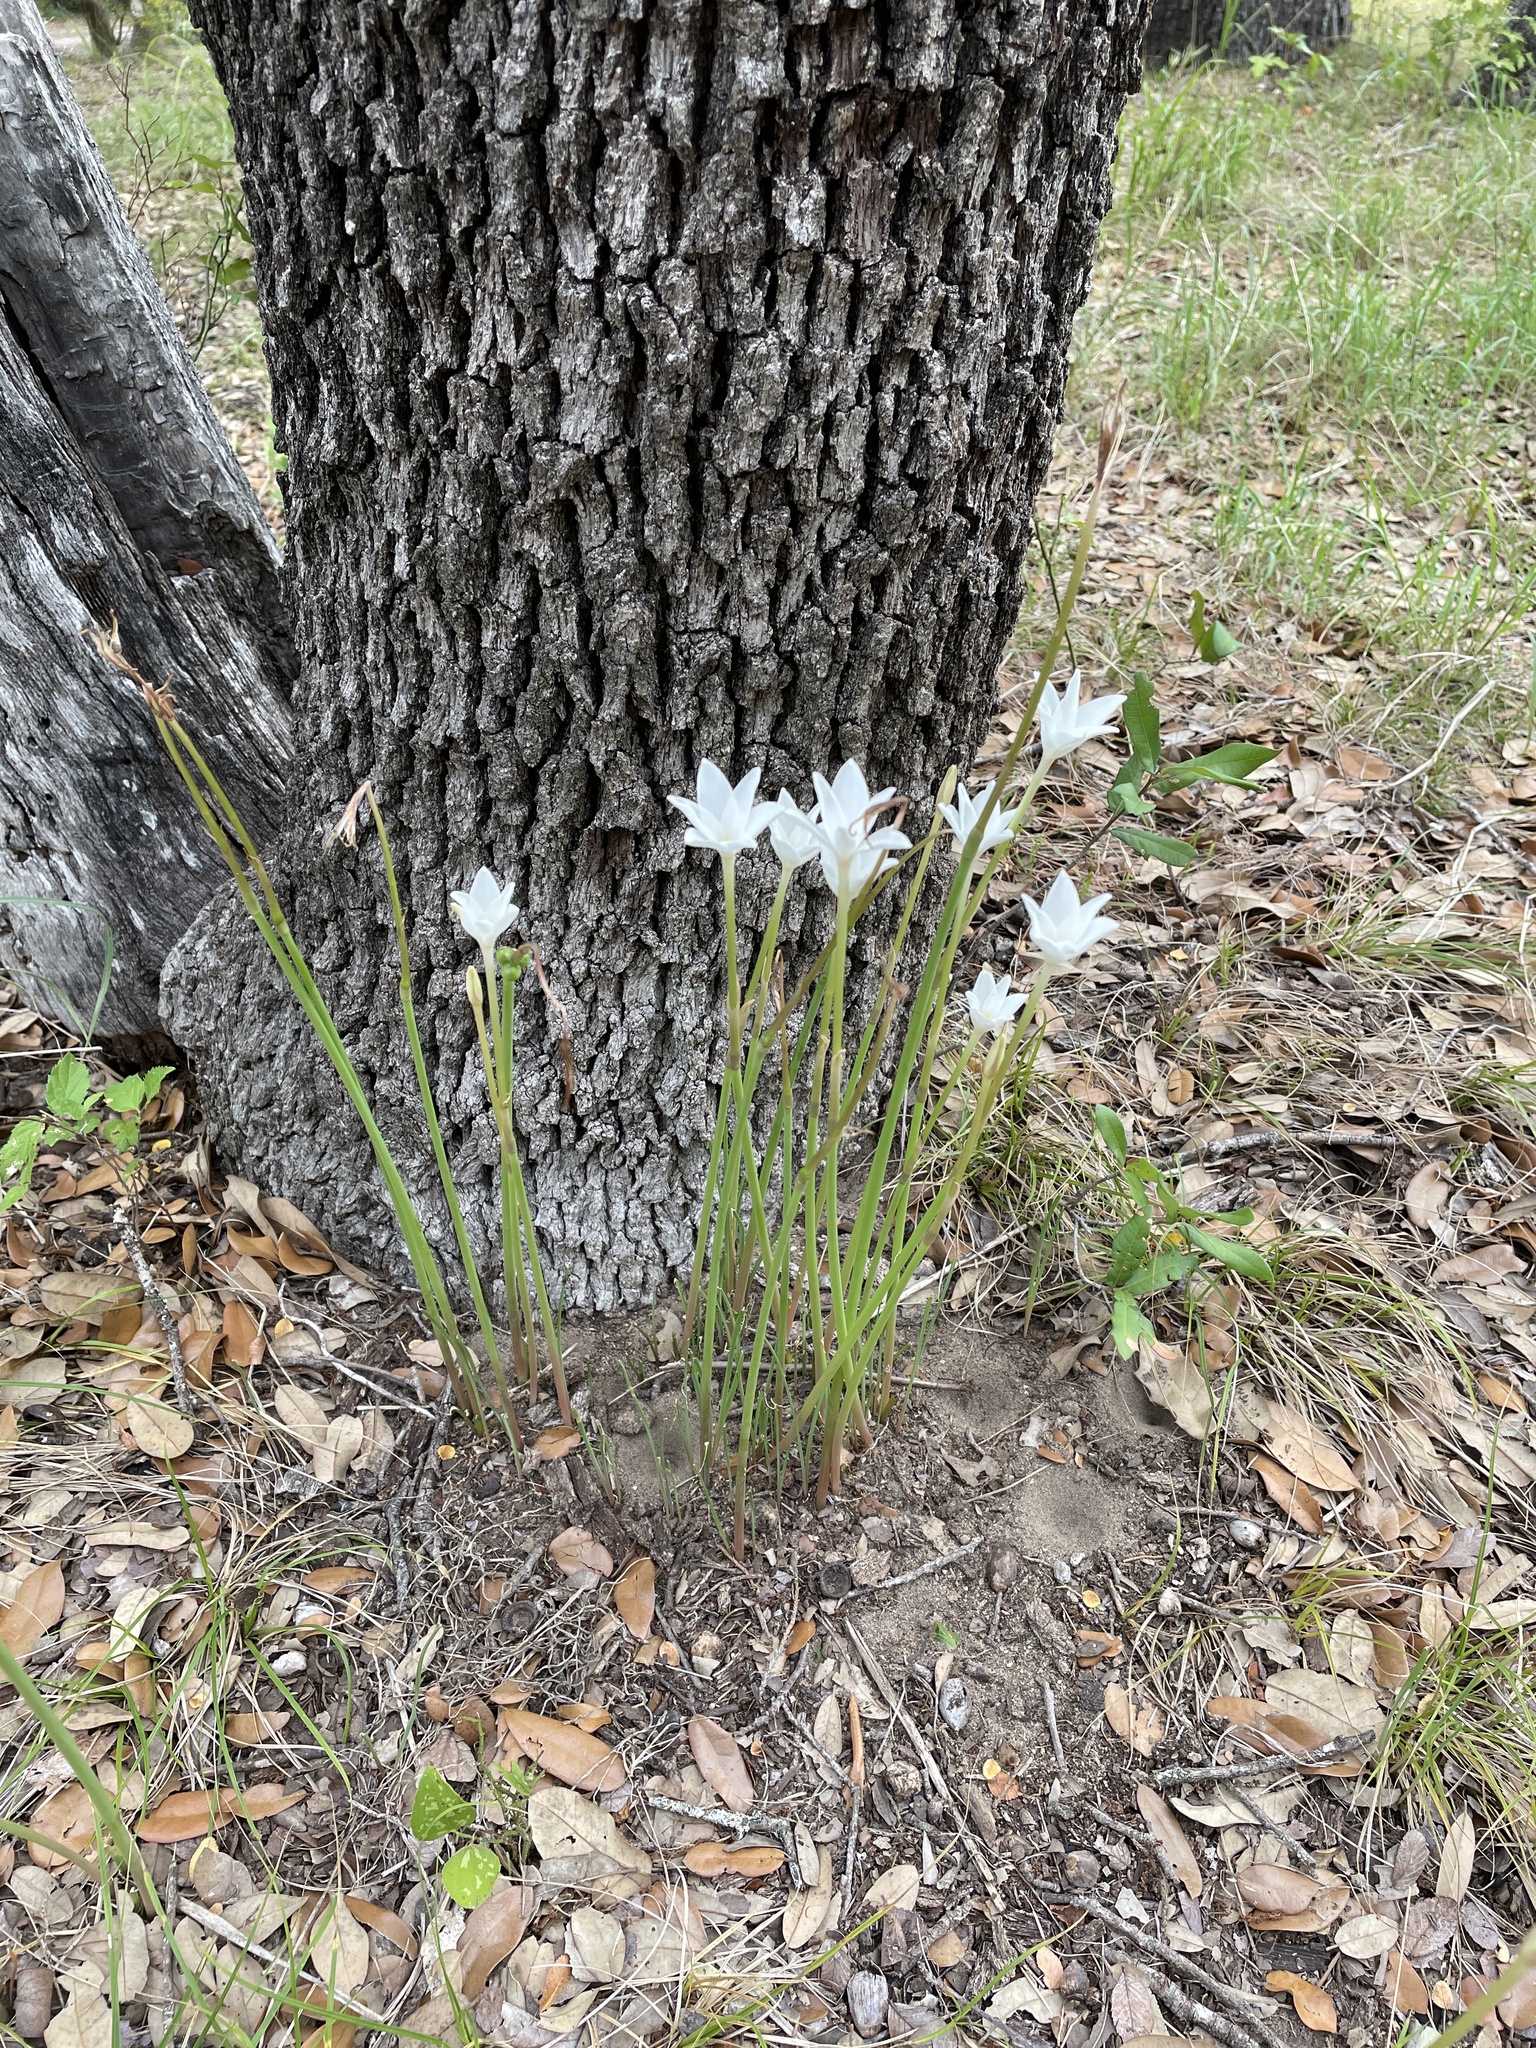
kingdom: Plantae
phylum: Tracheophyta
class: Liliopsida
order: Asparagales
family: Amaryllidaceae
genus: Zephyranthes
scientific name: Zephyranthes chlorosolen
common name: Evening rain-lily
